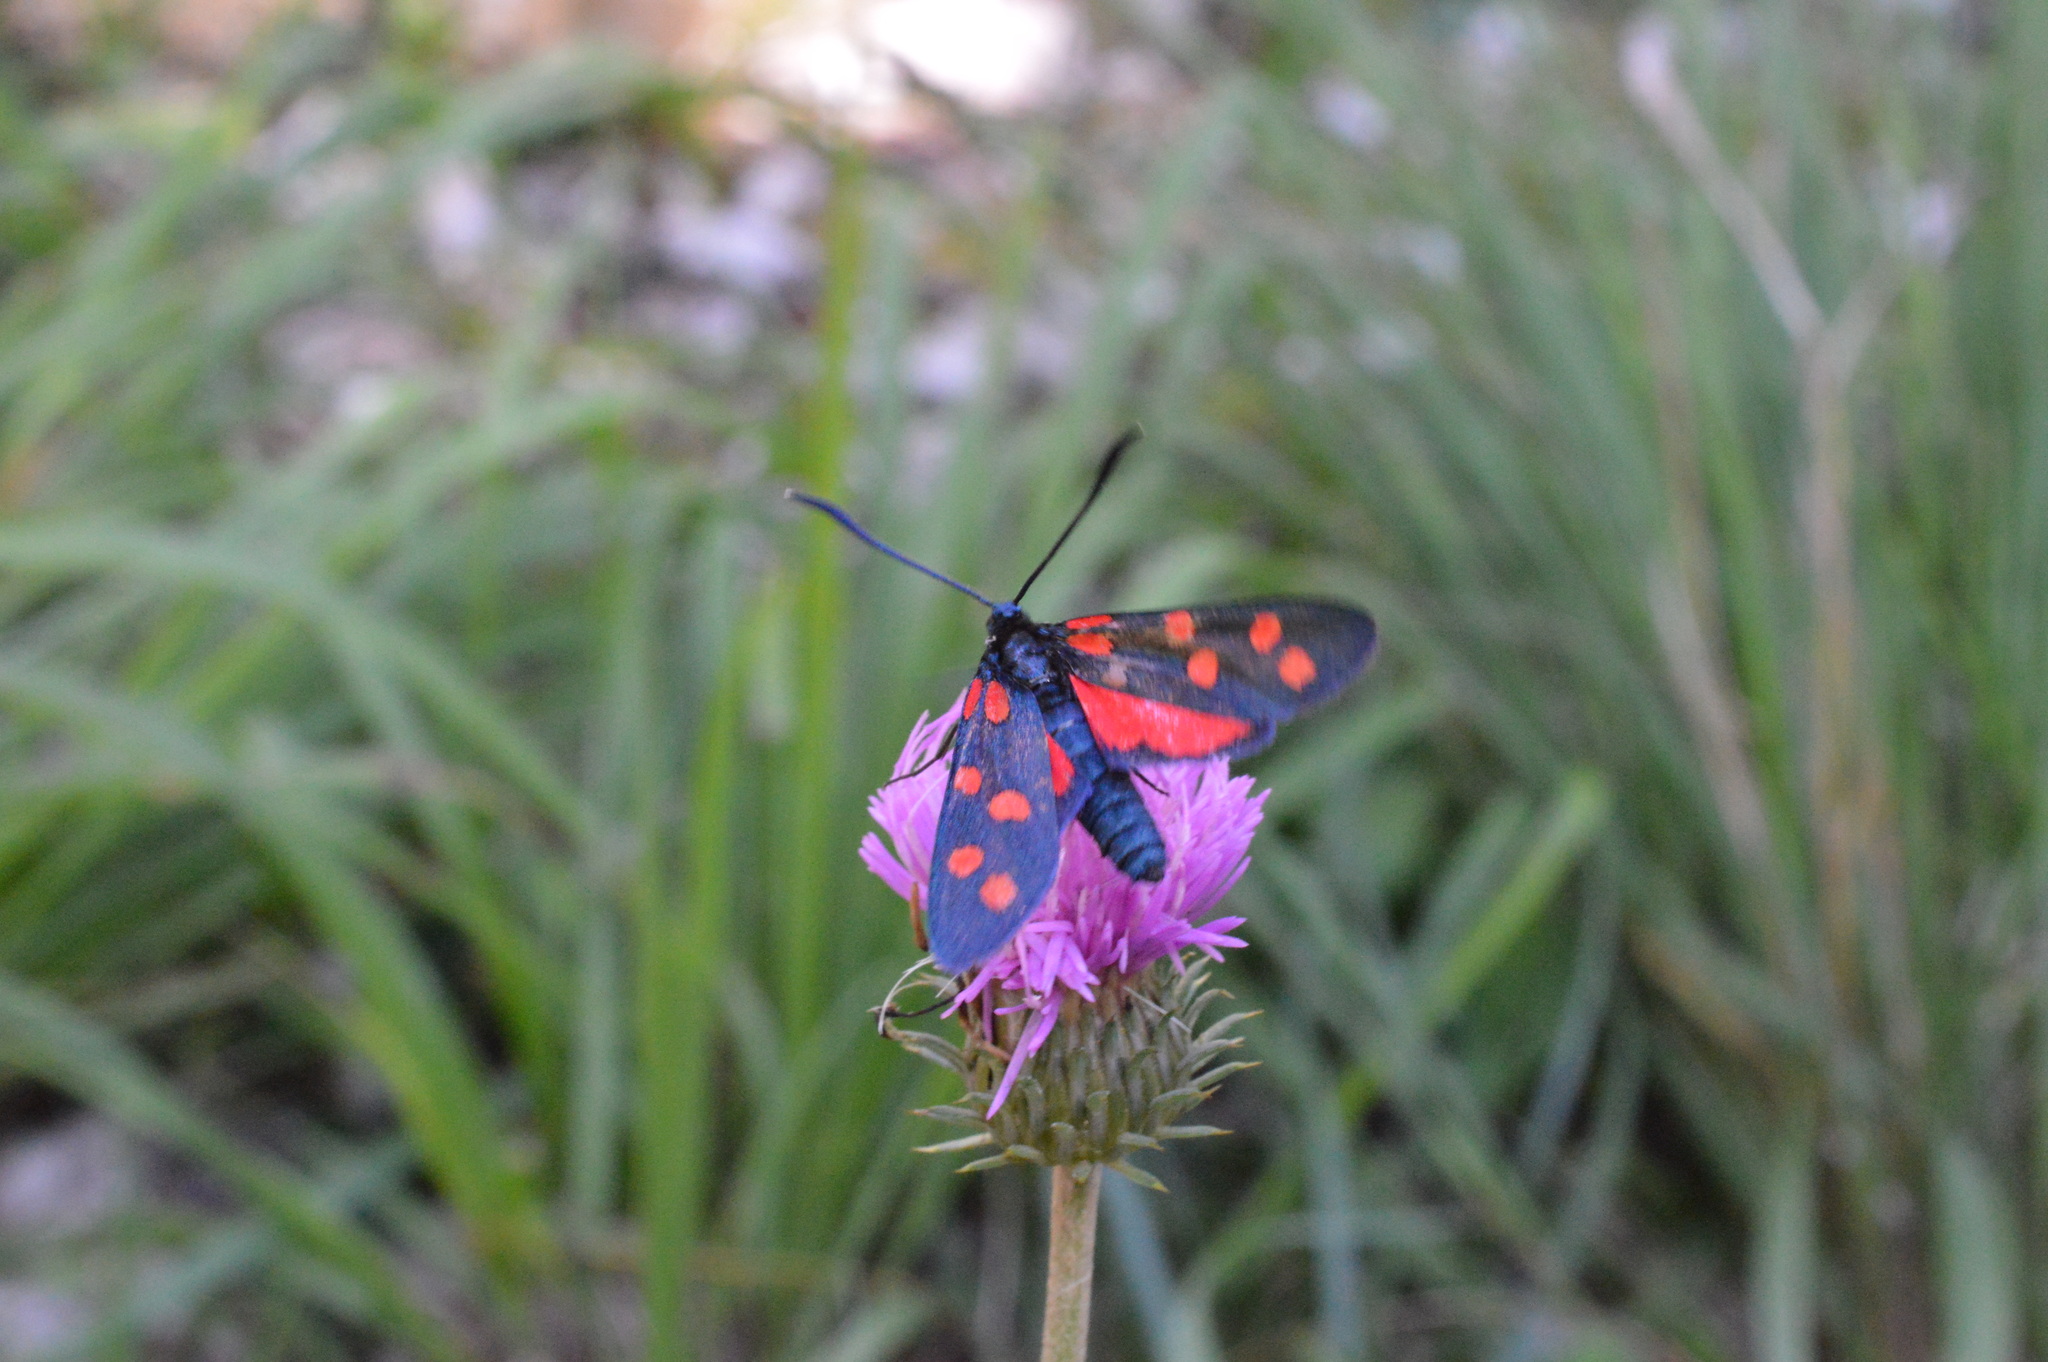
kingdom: Animalia
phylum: Arthropoda
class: Insecta
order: Lepidoptera
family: Zygaenidae
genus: Zygaena
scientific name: Zygaena transalpina
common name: Southern six spot burnet
